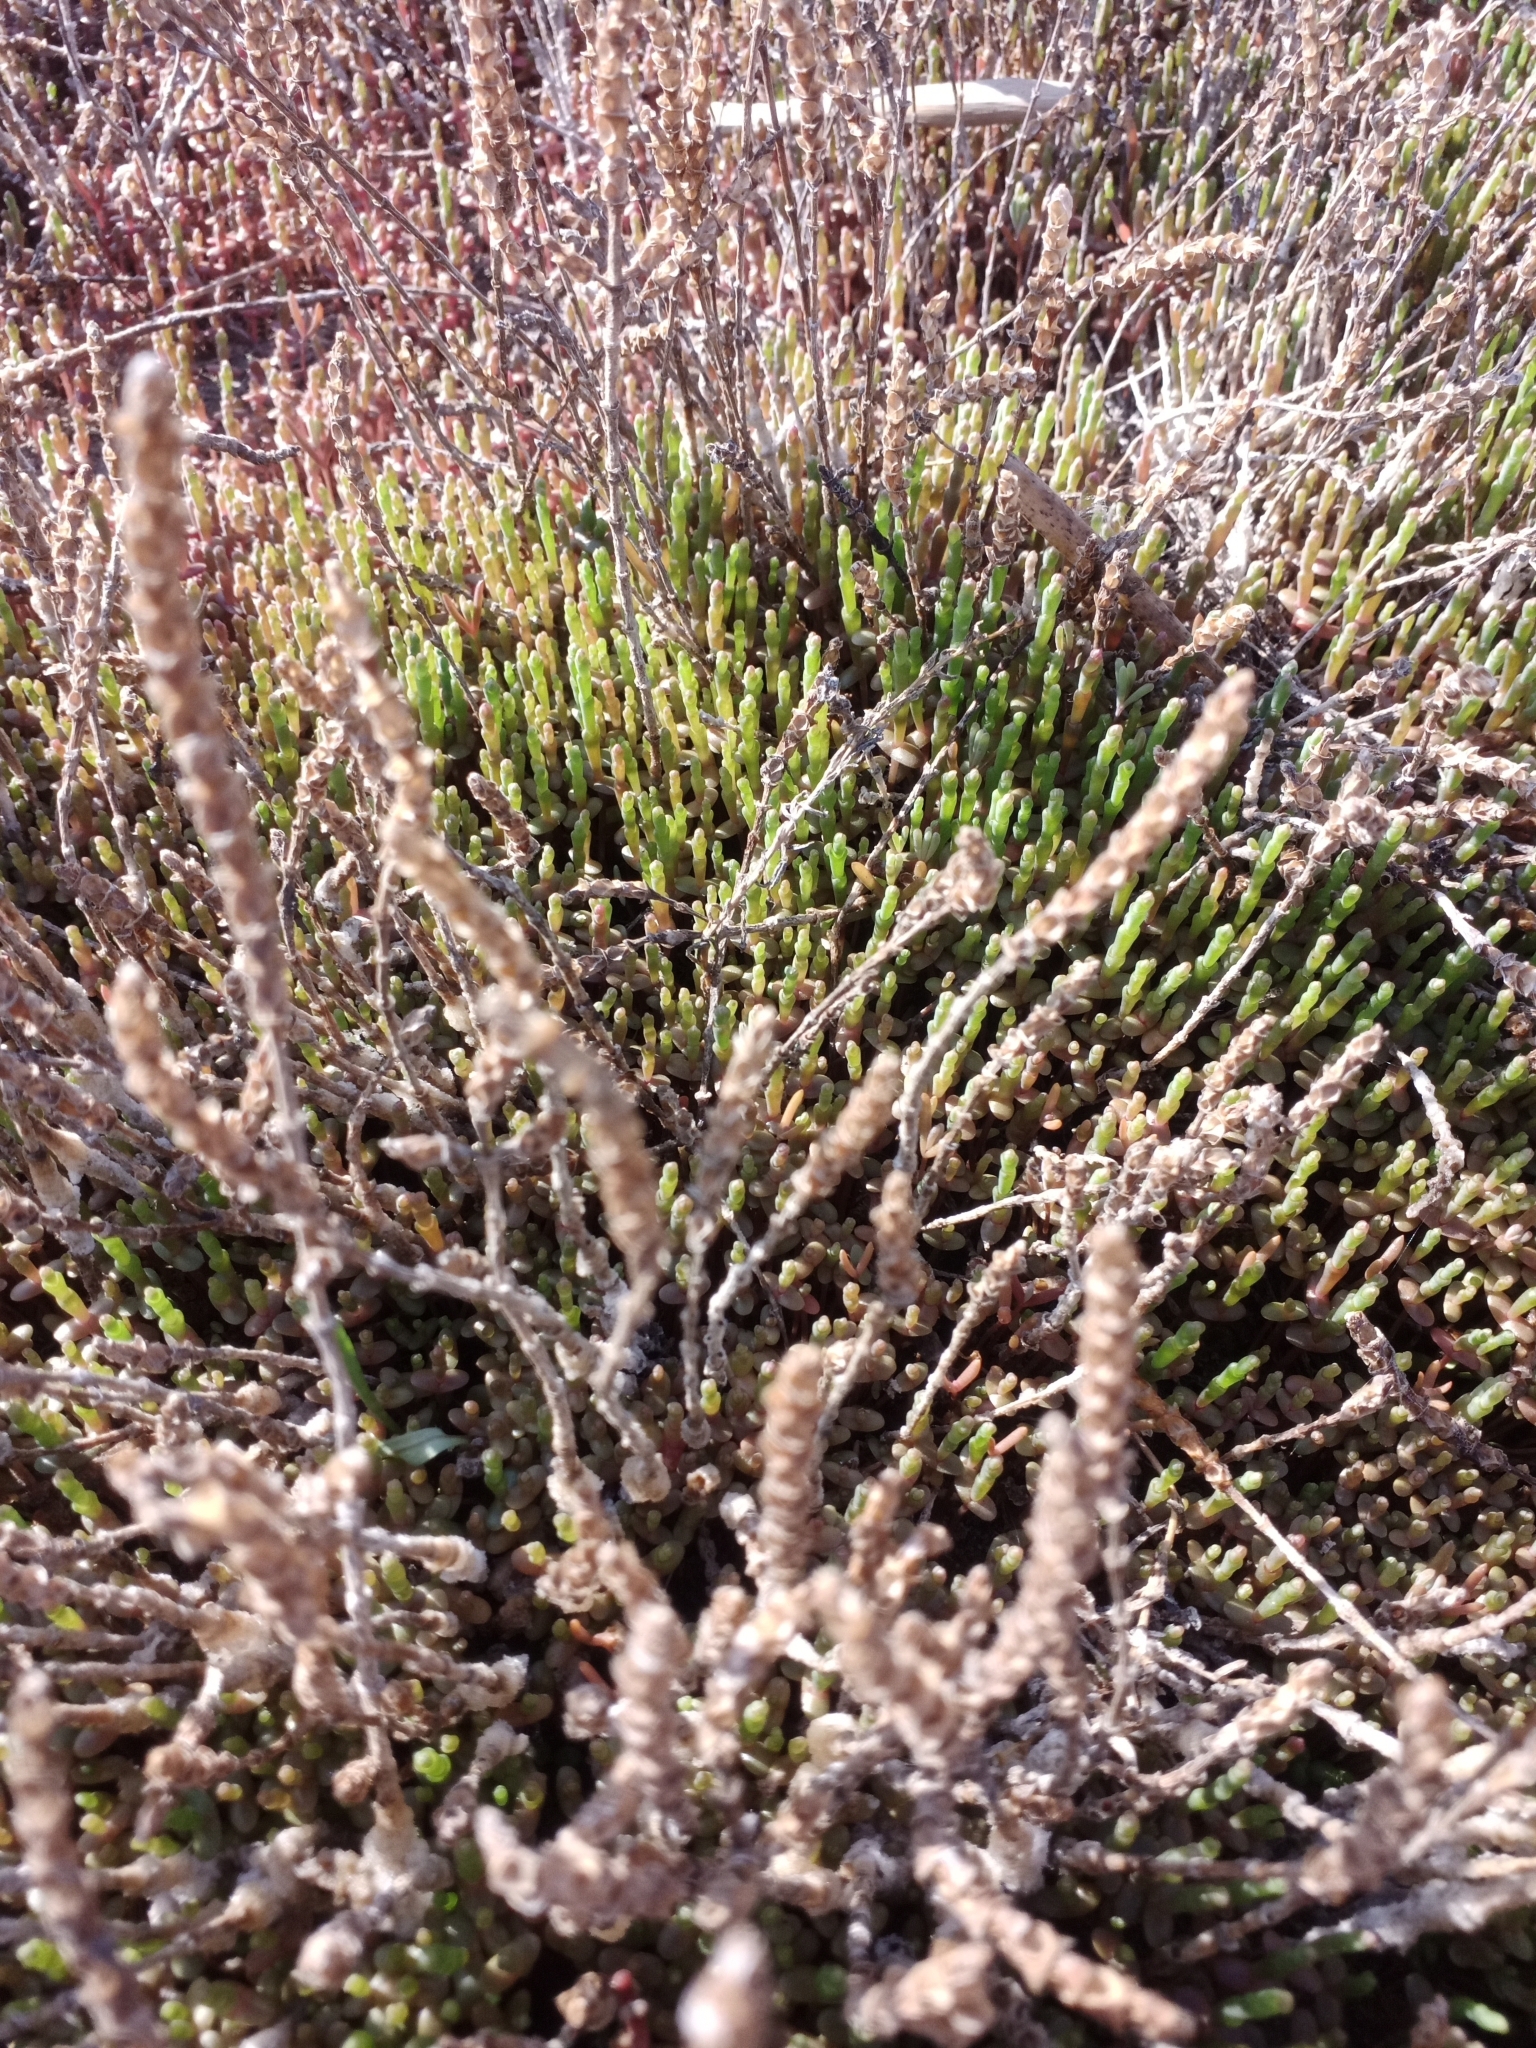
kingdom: Plantae
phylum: Tracheophyta
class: Magnoliopsida
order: Caryophyllales
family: Amaranthaceae
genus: Salicornia
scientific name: Salicornia perennans
